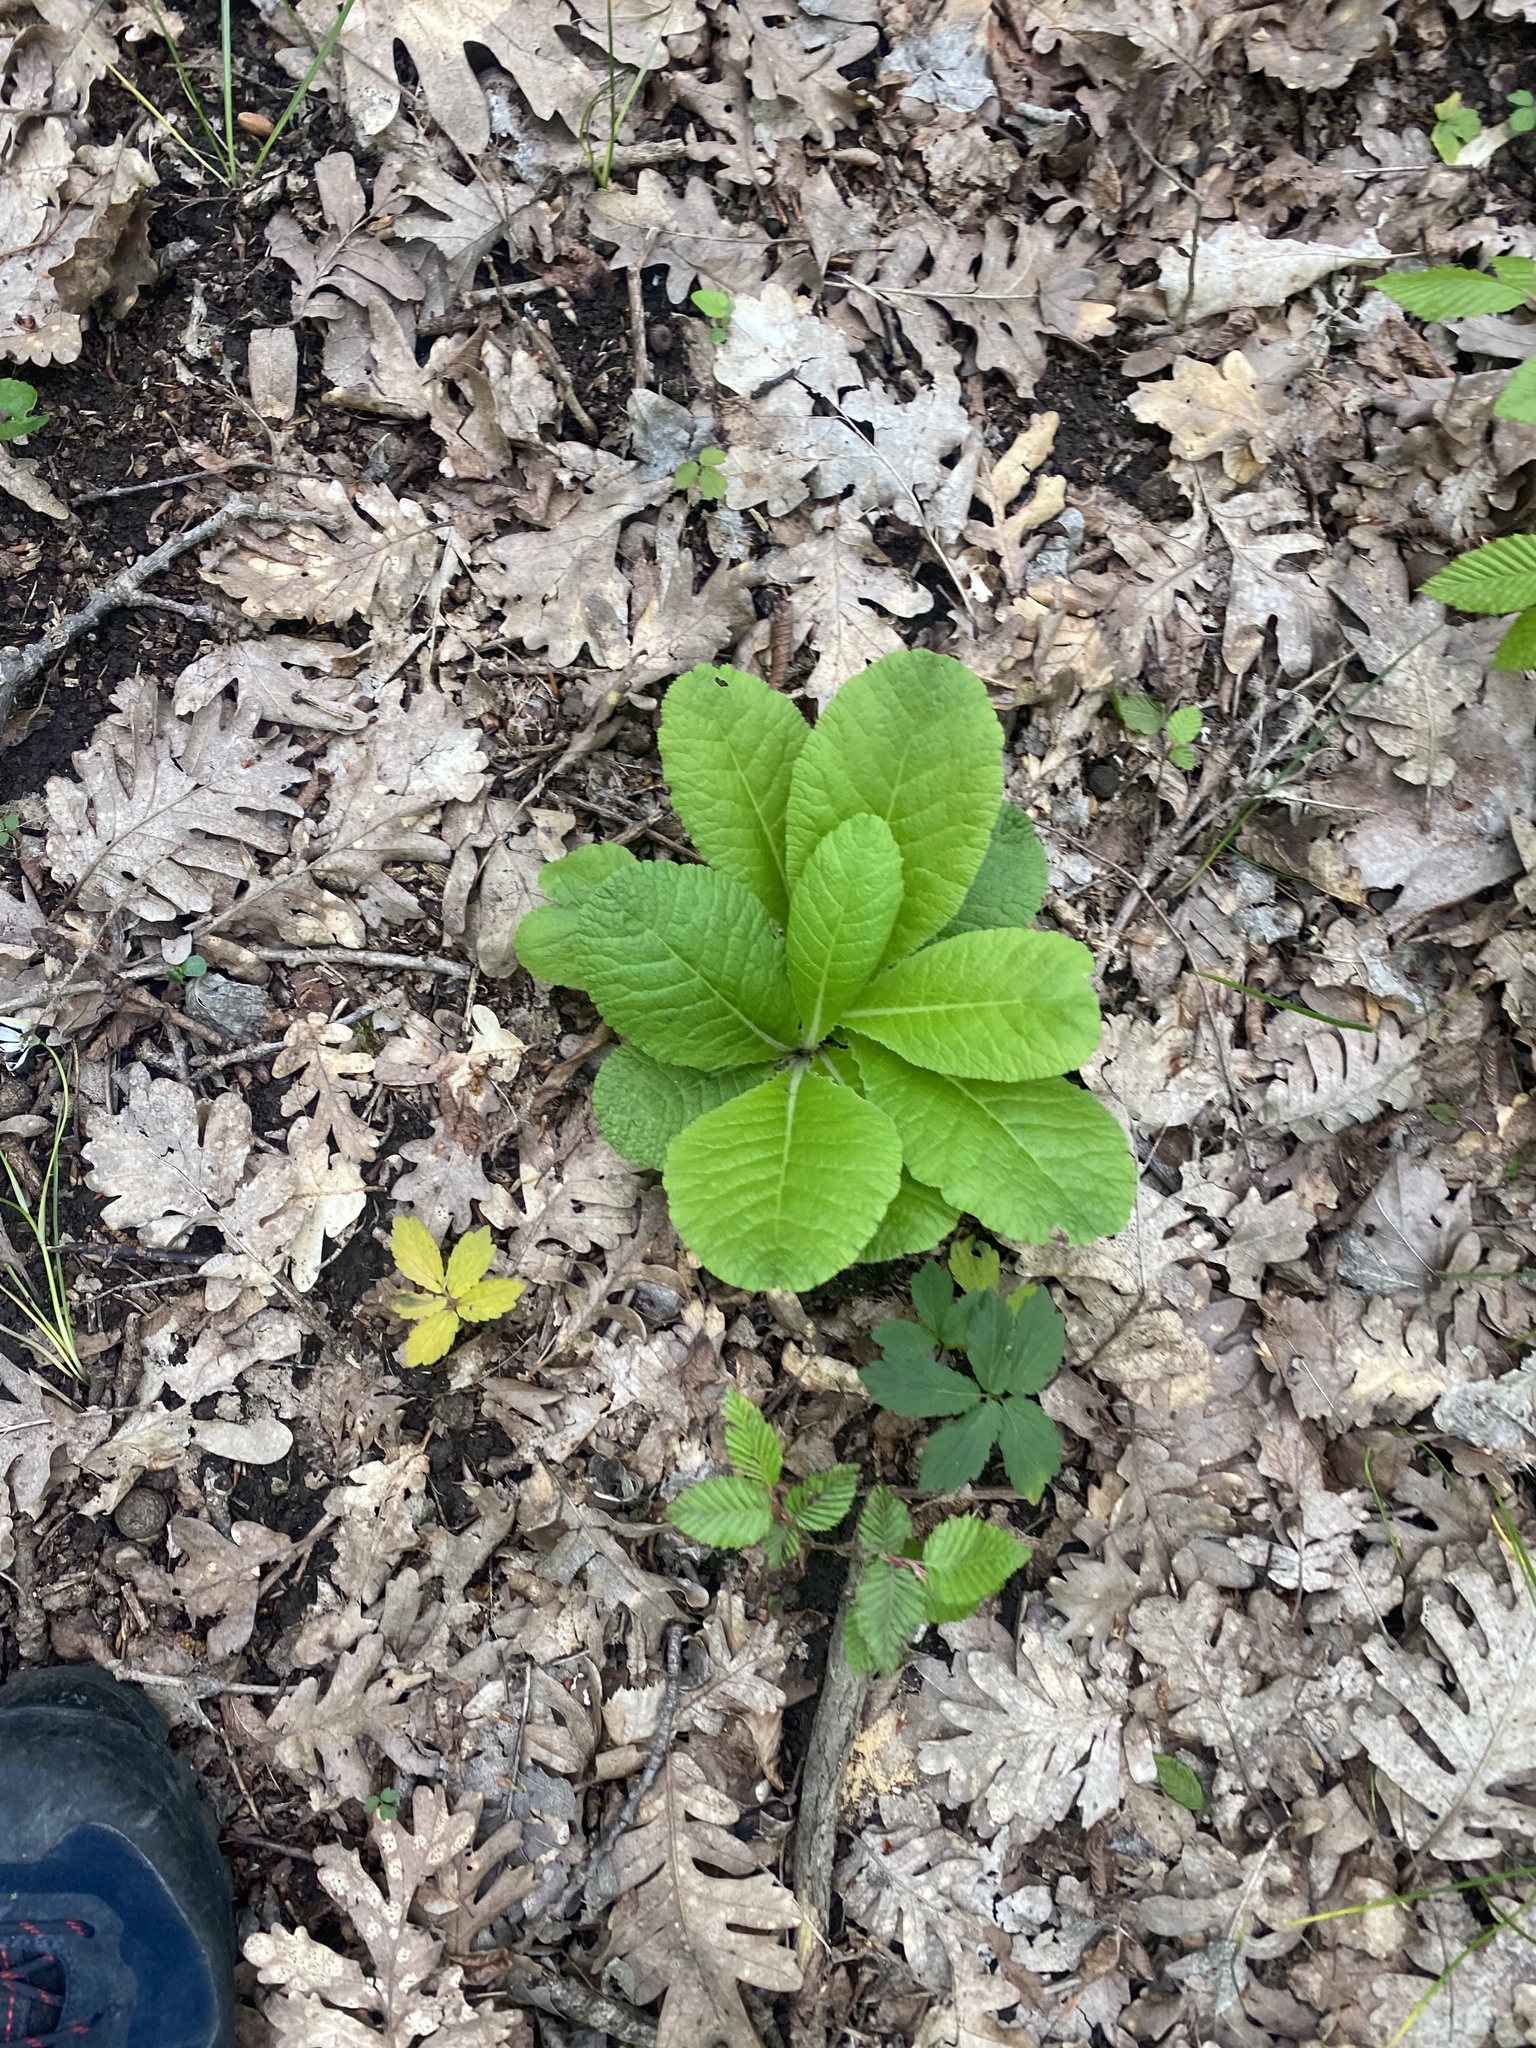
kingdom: Plantae
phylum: Tracheophyta
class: Magnoliopsida
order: Ericales
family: Primulaceae
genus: Primula
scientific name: Primula vulgaris
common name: Primrose
